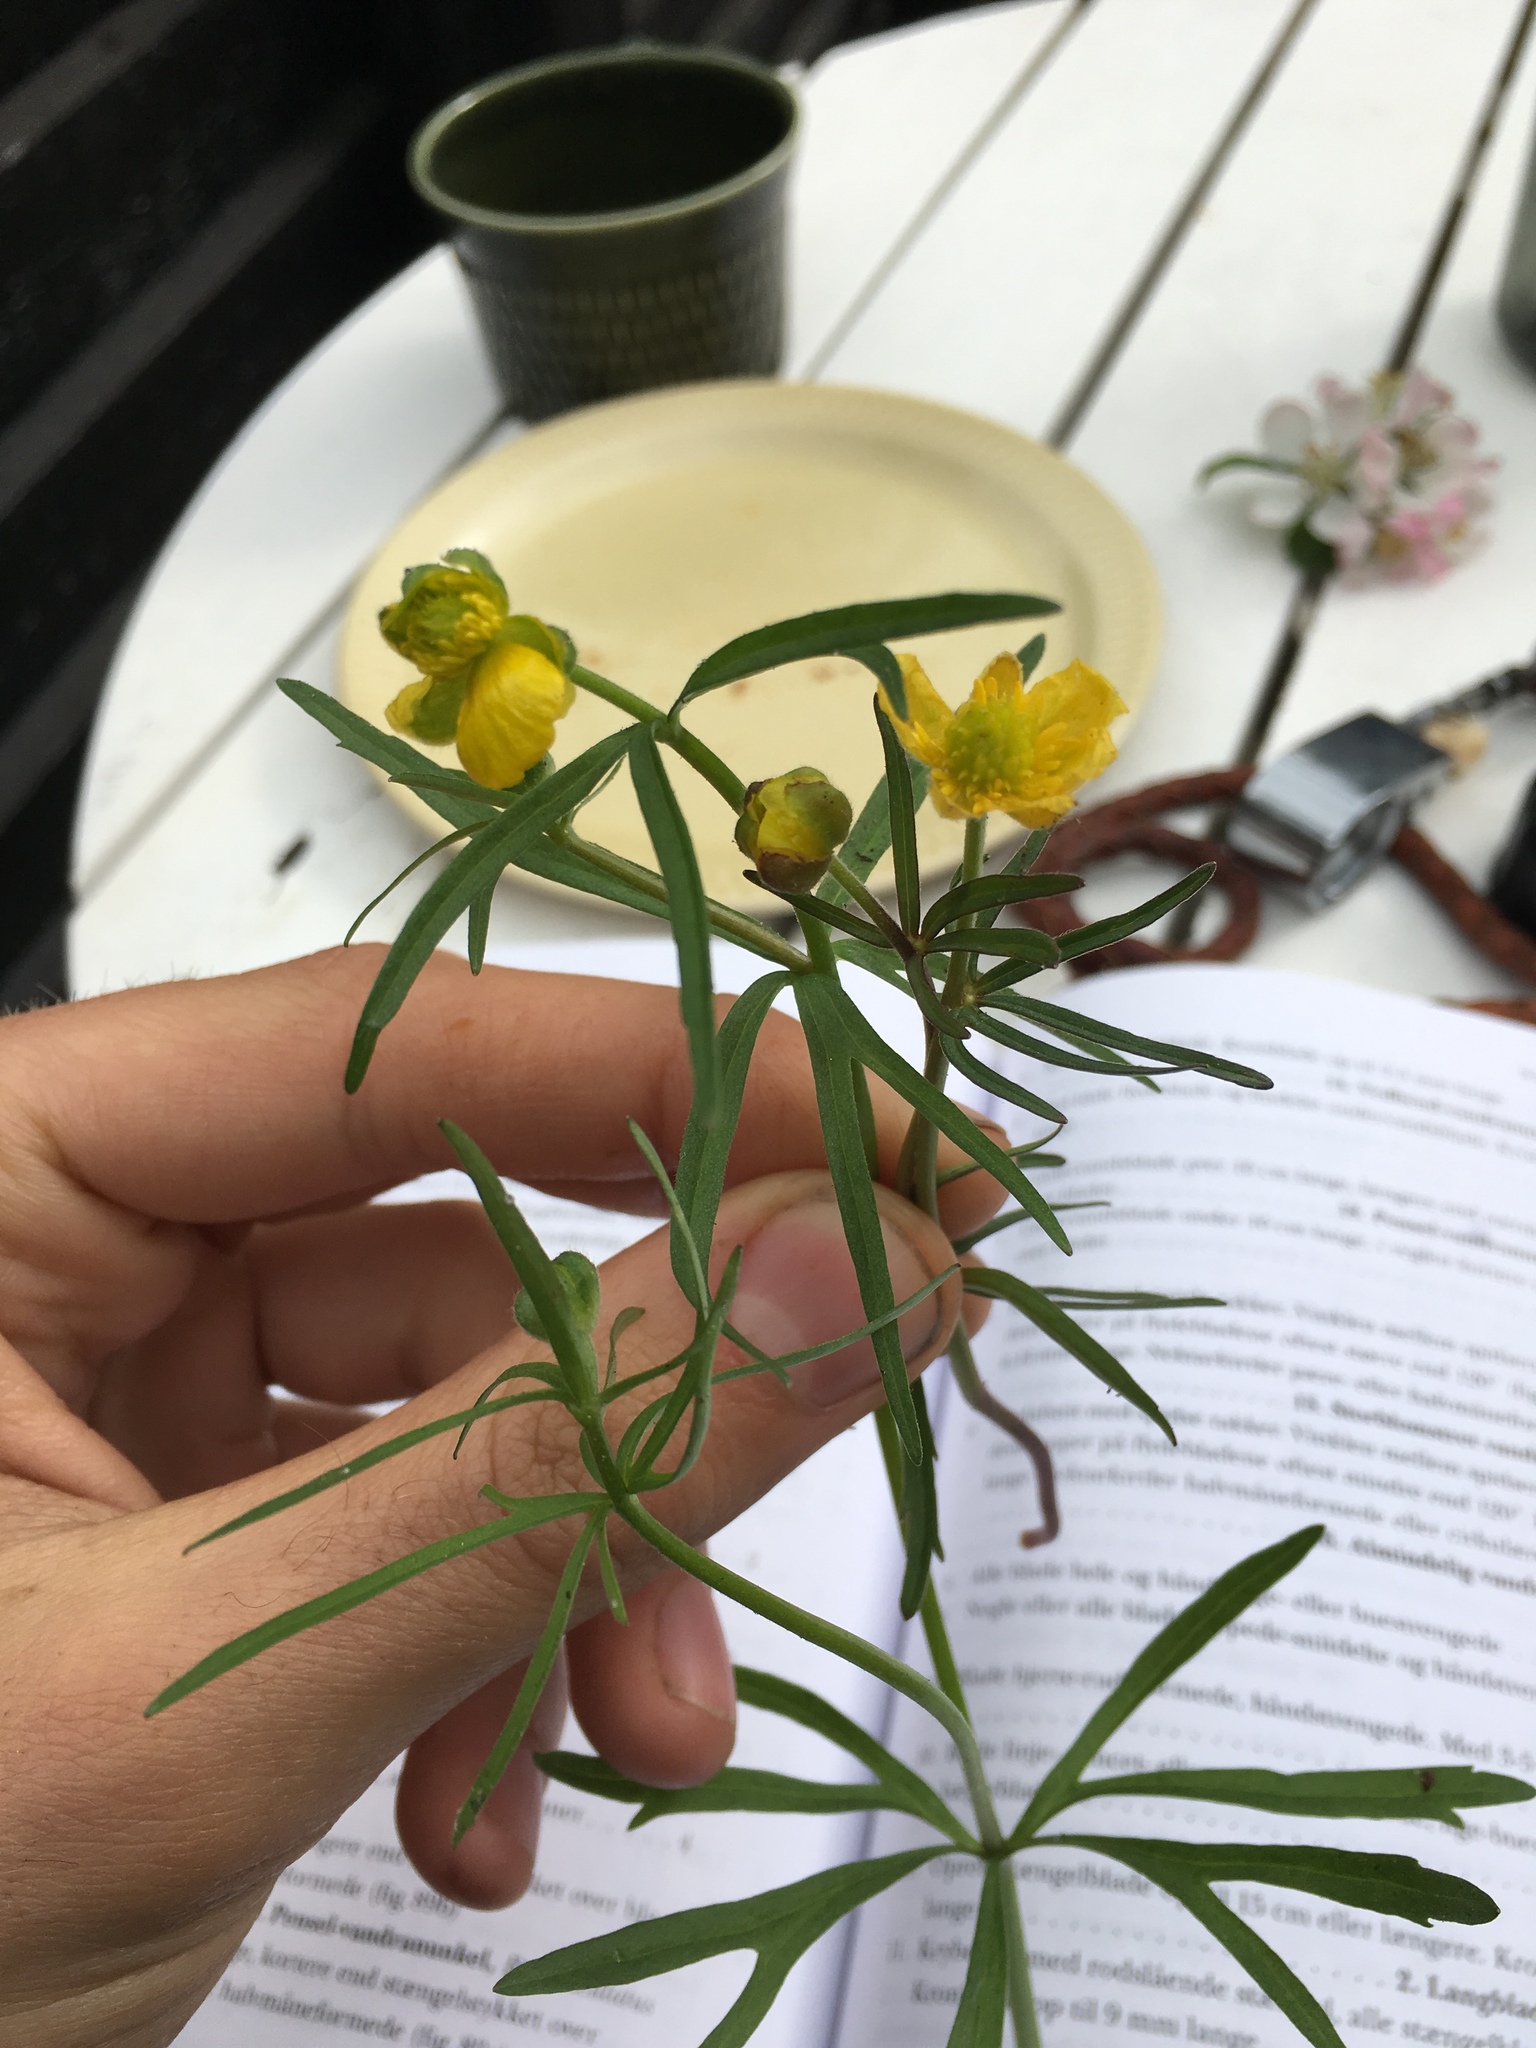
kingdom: Plantae
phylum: Tracheophyta
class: Magnoliopsida
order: Ranunculales
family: Ranunculaceae
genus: Ranunculus
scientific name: Ranunculus auricomus
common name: Goldilocks buttercup
